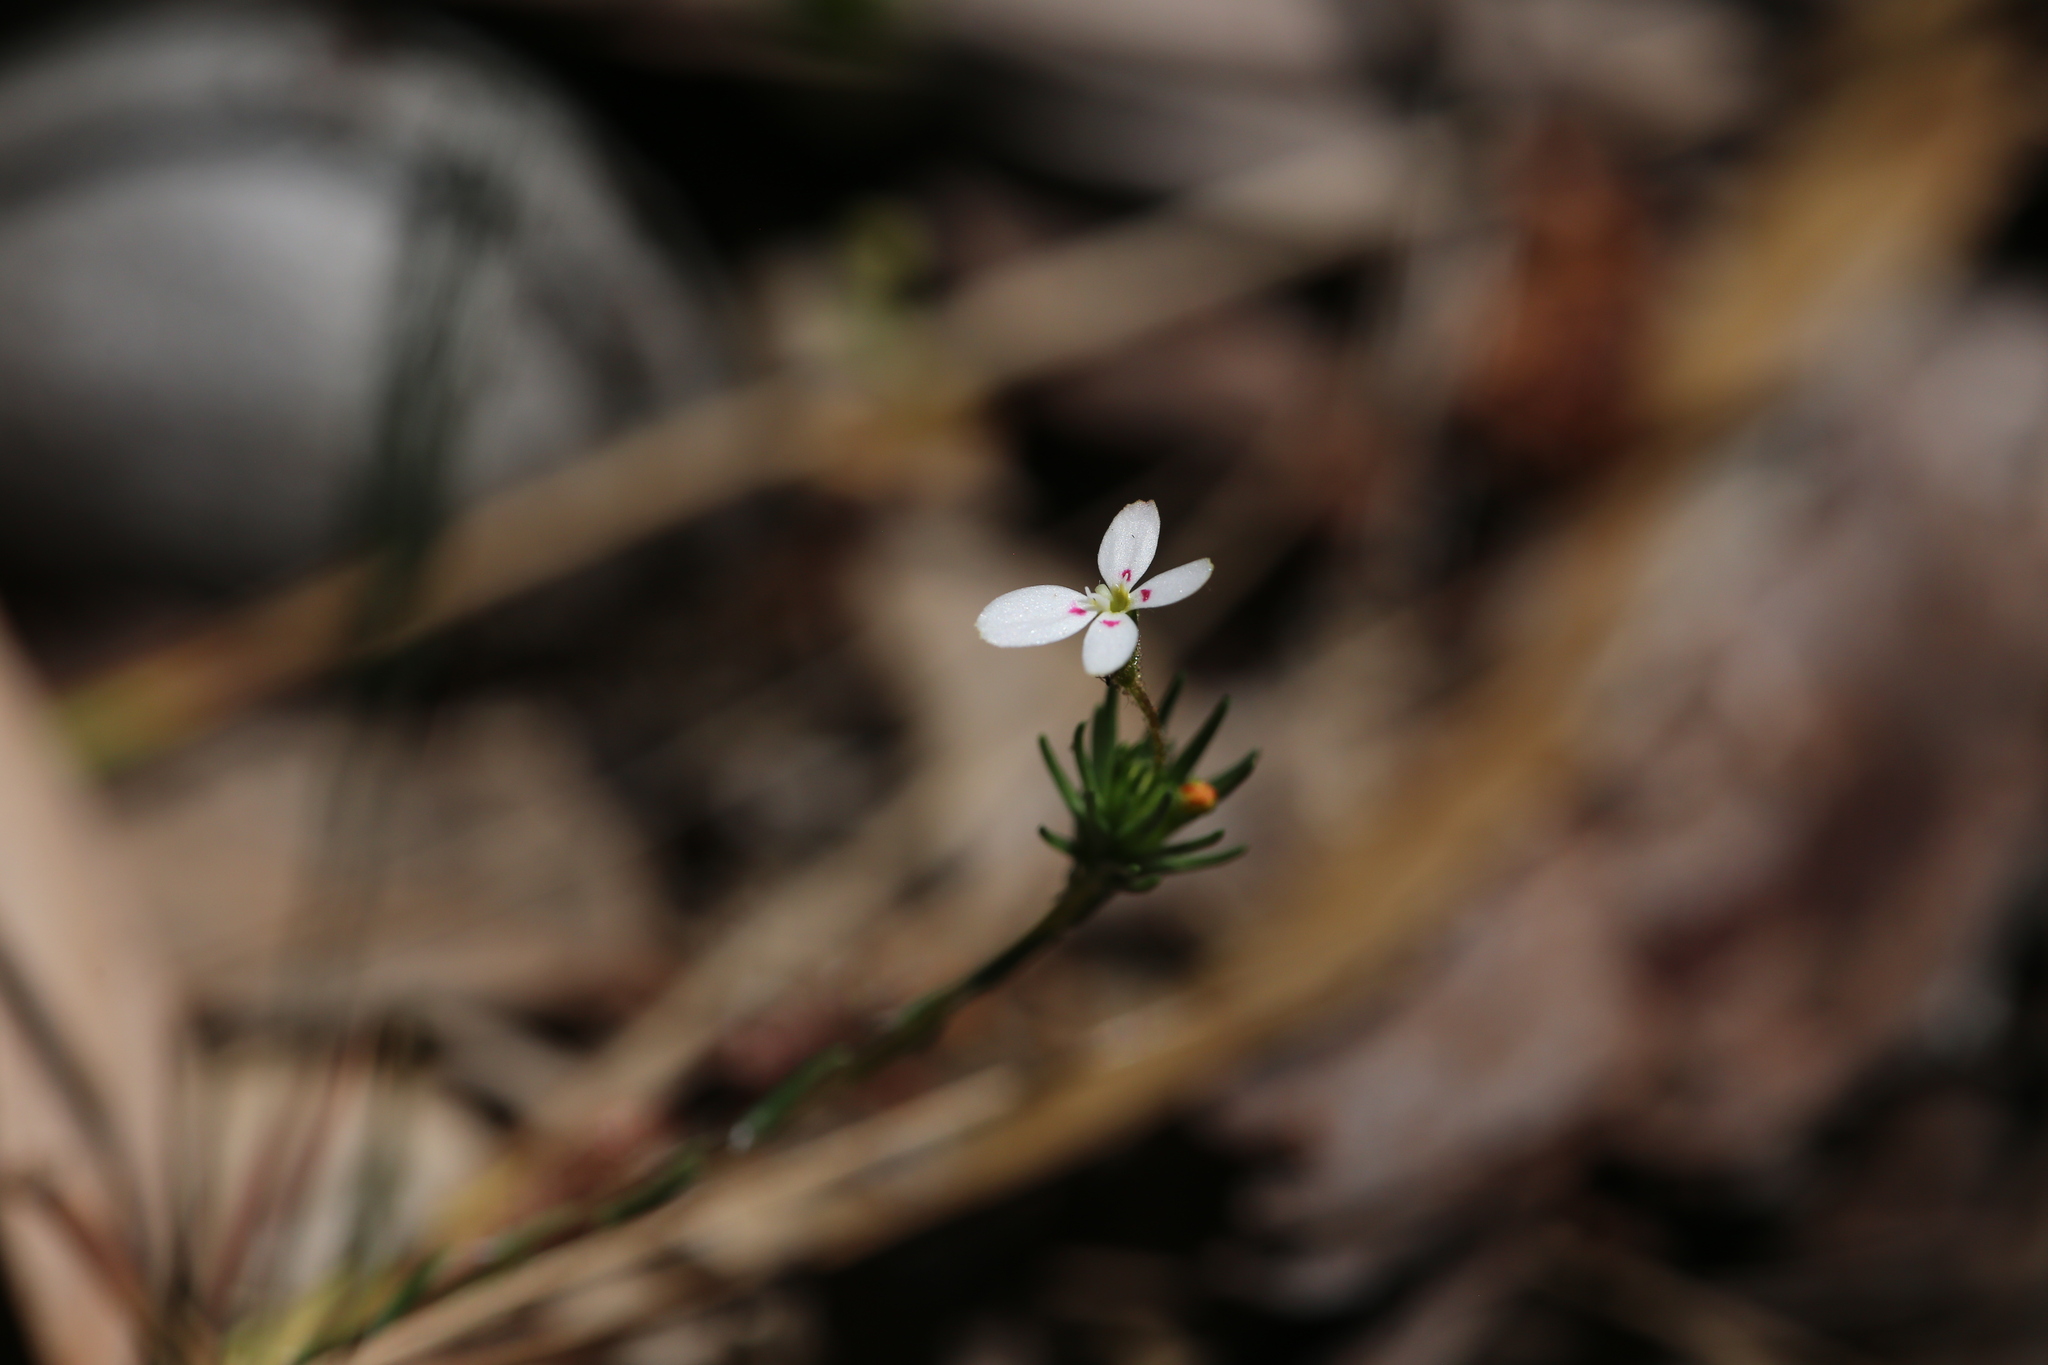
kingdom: Plantae
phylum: Tracheophyta
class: Magnoliopsida
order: Asterales
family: Stylidiaceae
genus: Stylidium
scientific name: Stylidium repens
